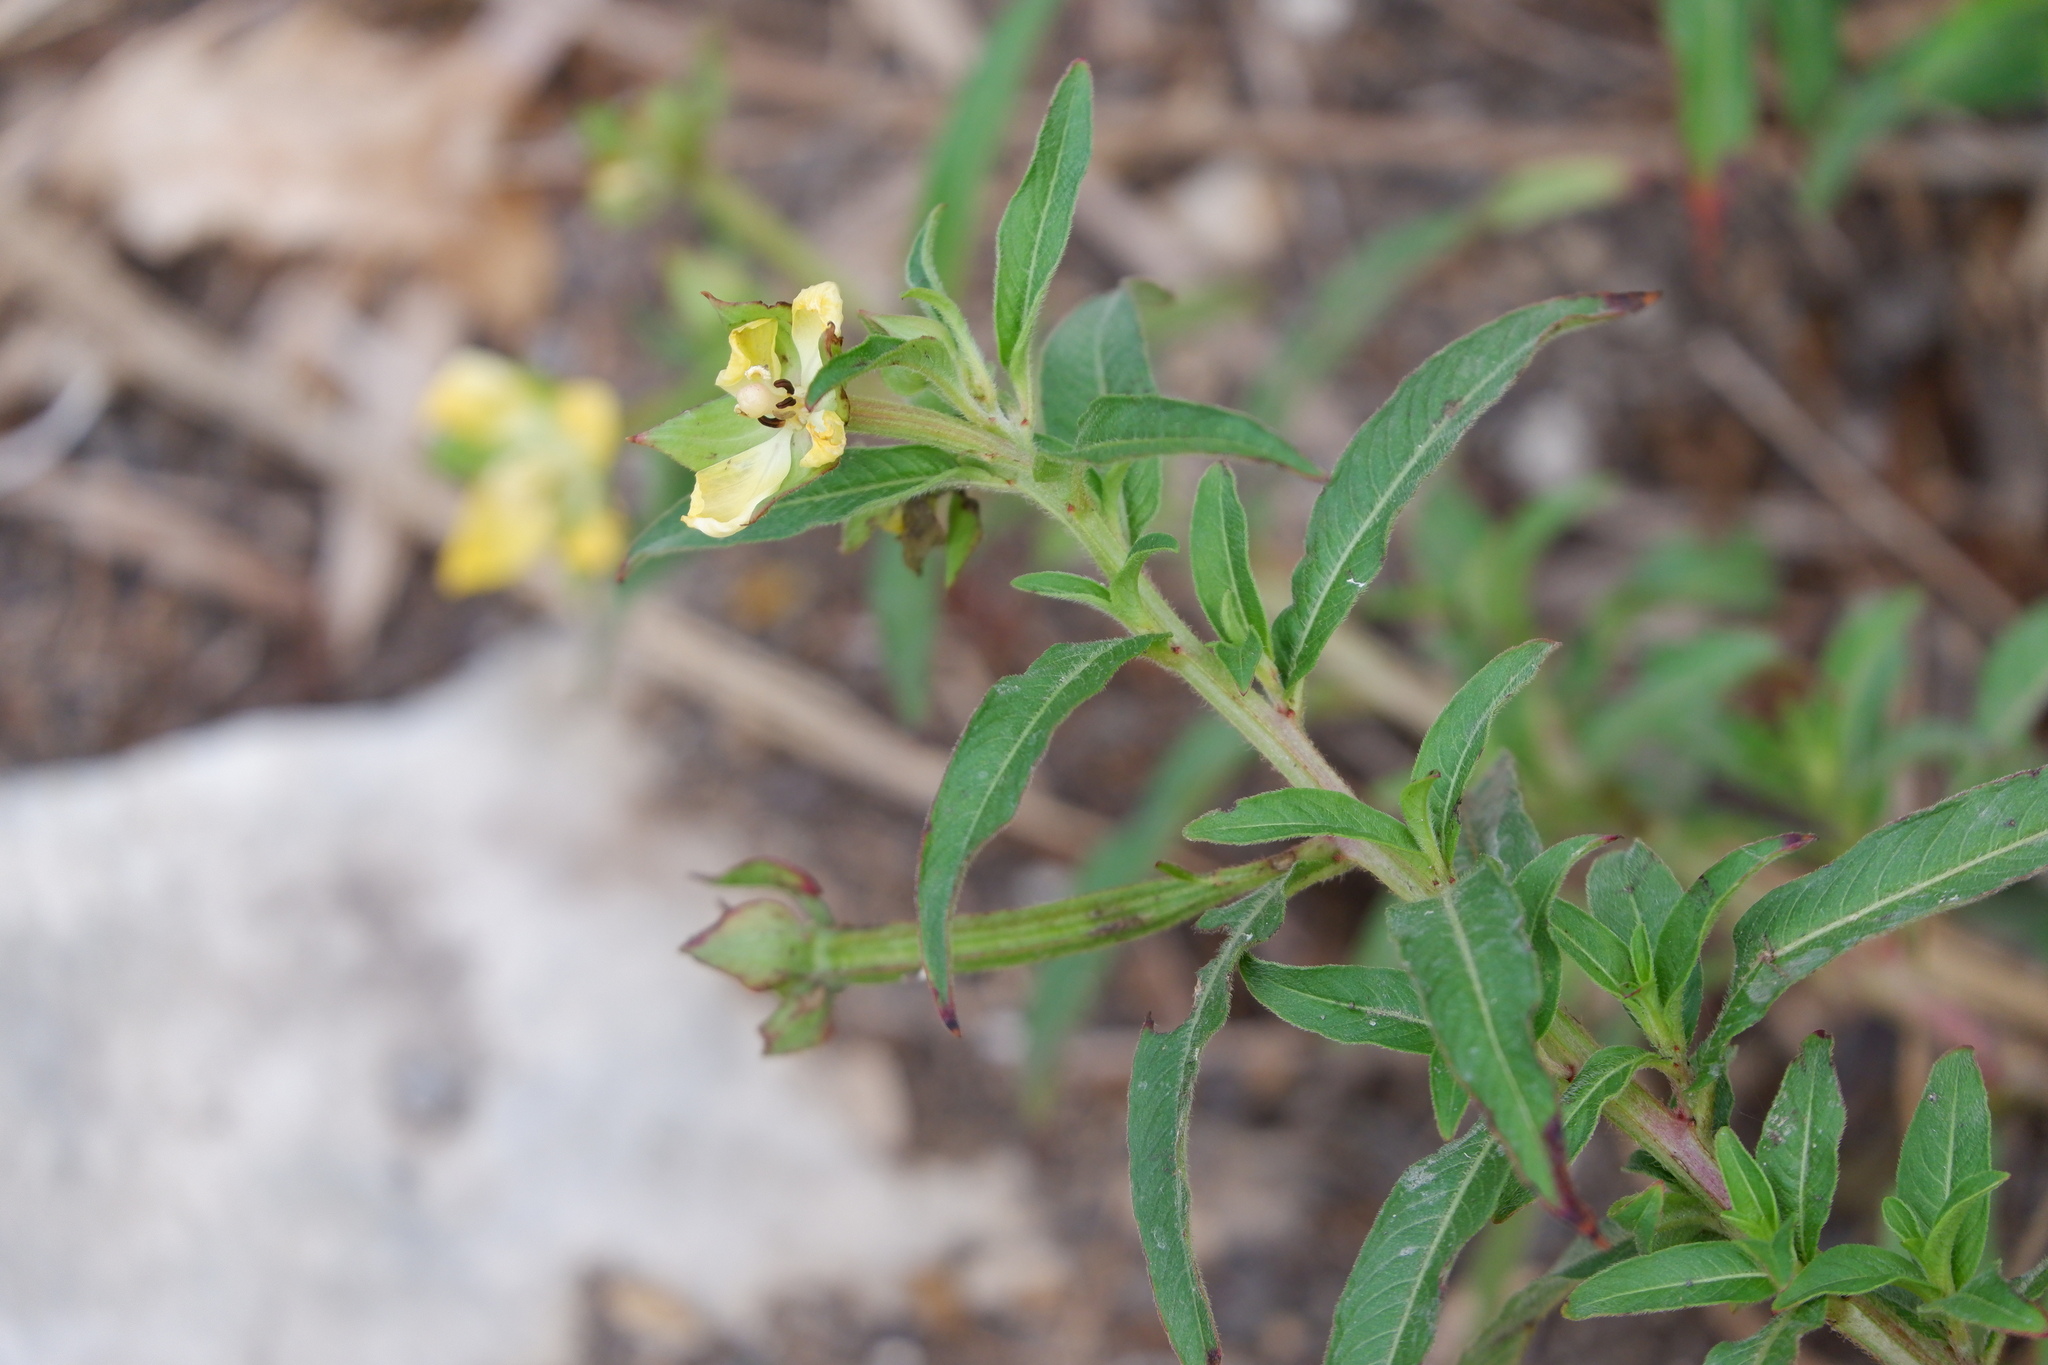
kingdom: Plantae
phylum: Tracheophyta
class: Magnoliopsida
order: Myrtales
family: Onagraceae
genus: Ludwigia
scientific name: Ludwigia octovalvis
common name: Water-primrose
